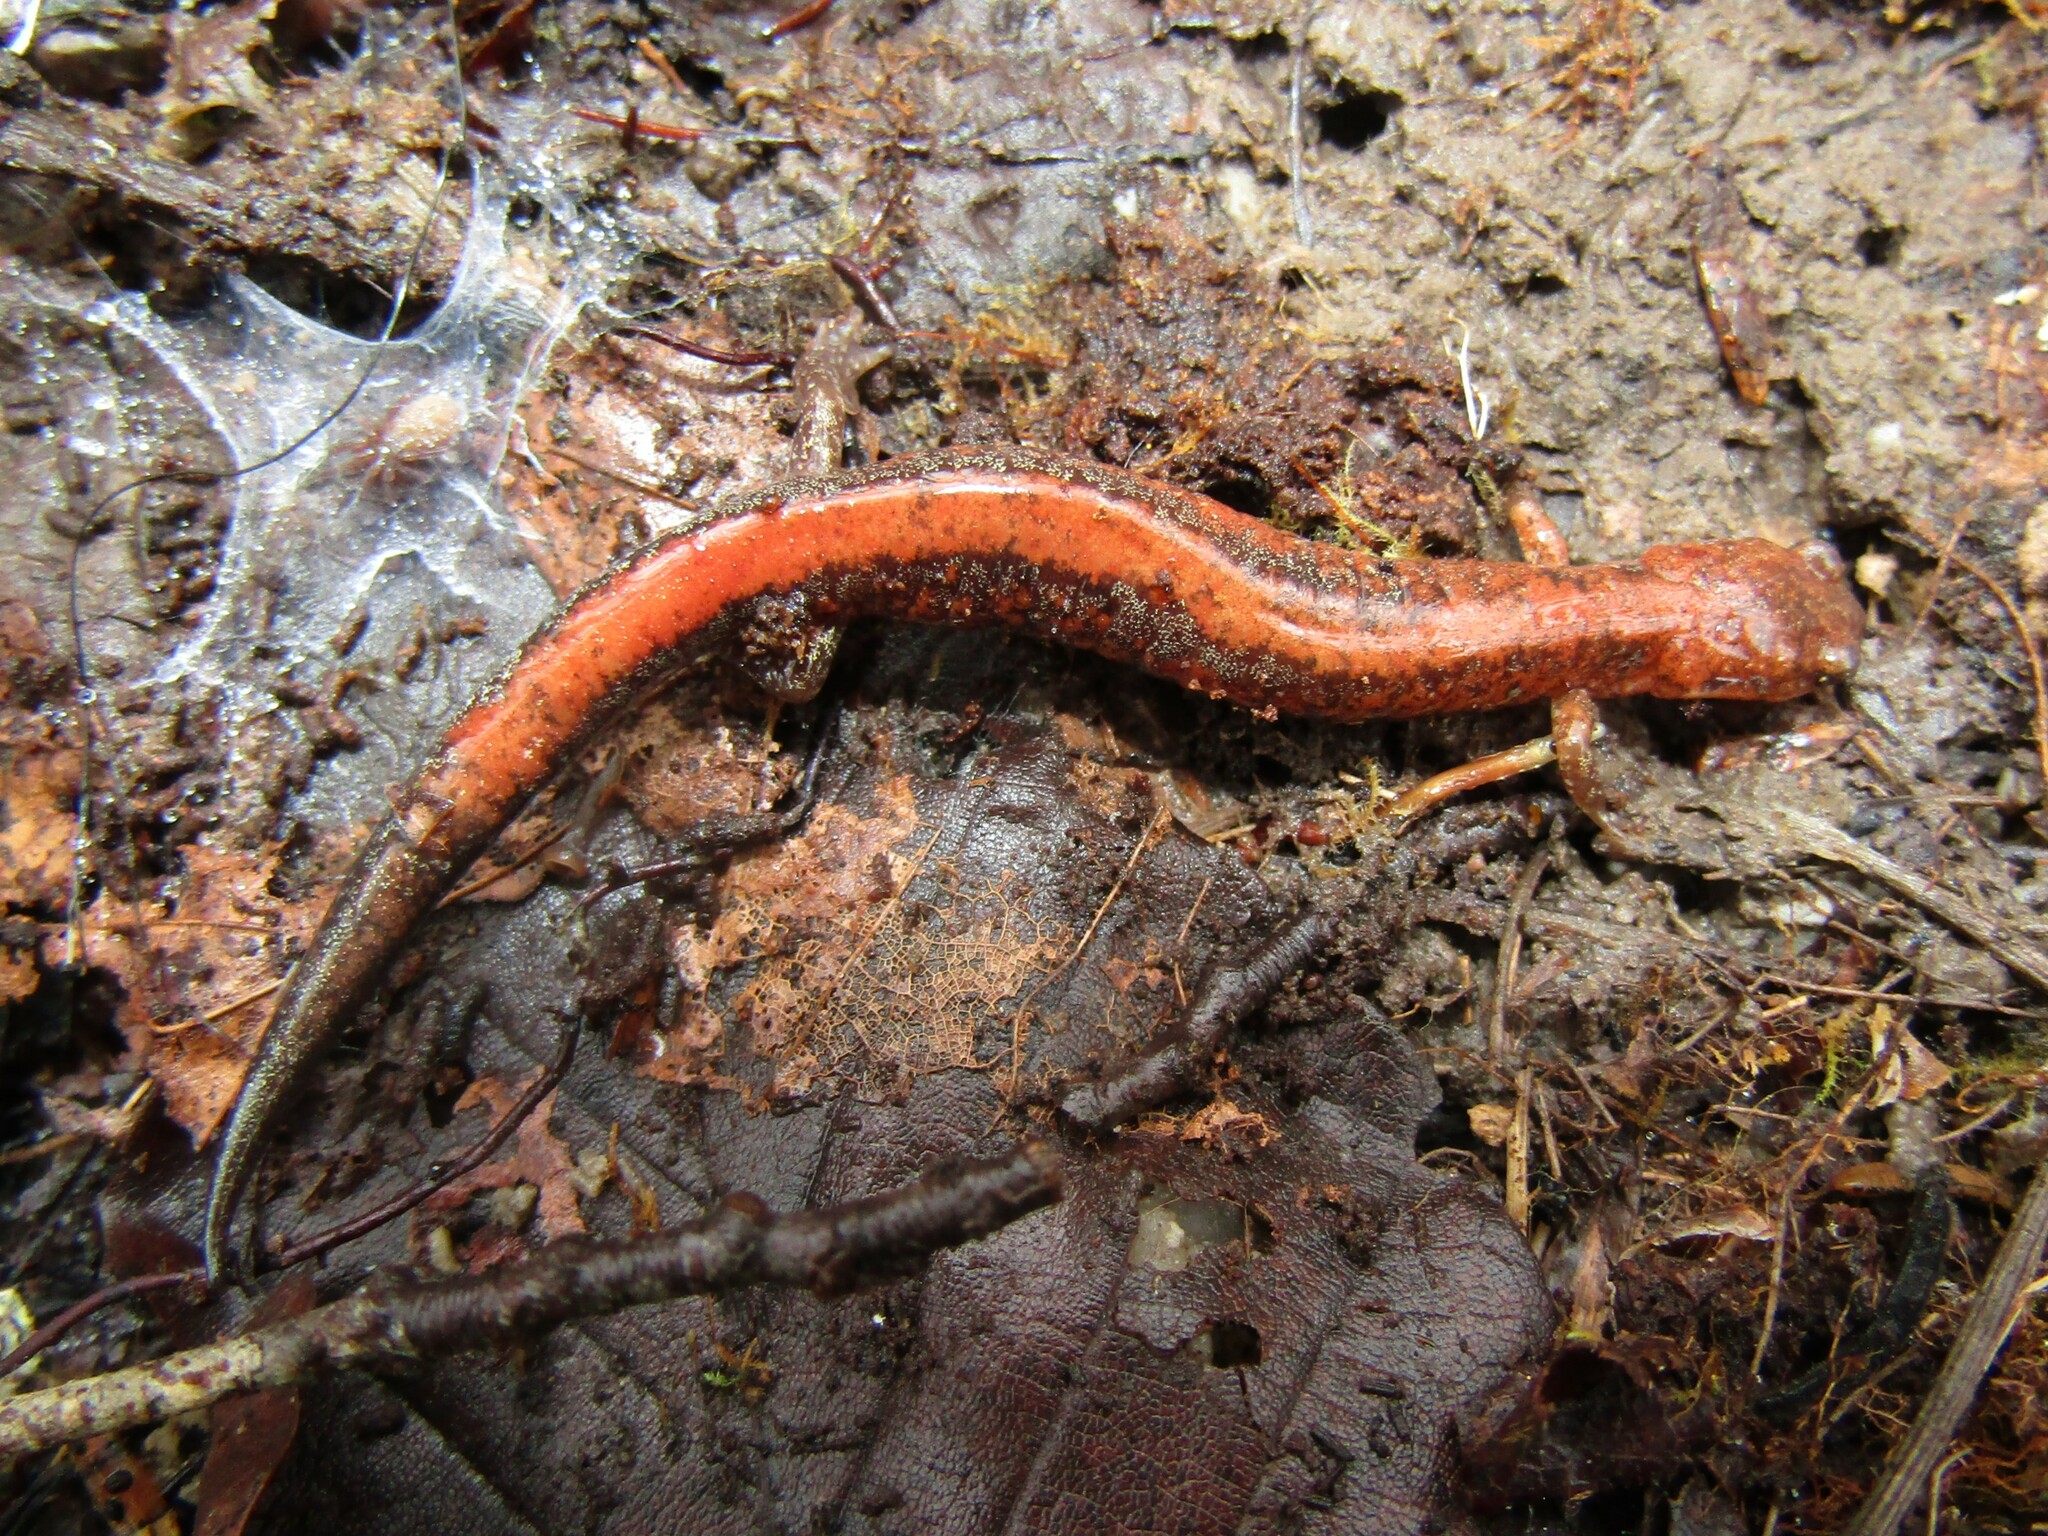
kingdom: Animalia
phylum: Chordata
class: Amphibia
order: Caudata
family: Plethodontidae
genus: Plethodon
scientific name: Plethodon cinereus
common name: Redback salamander
